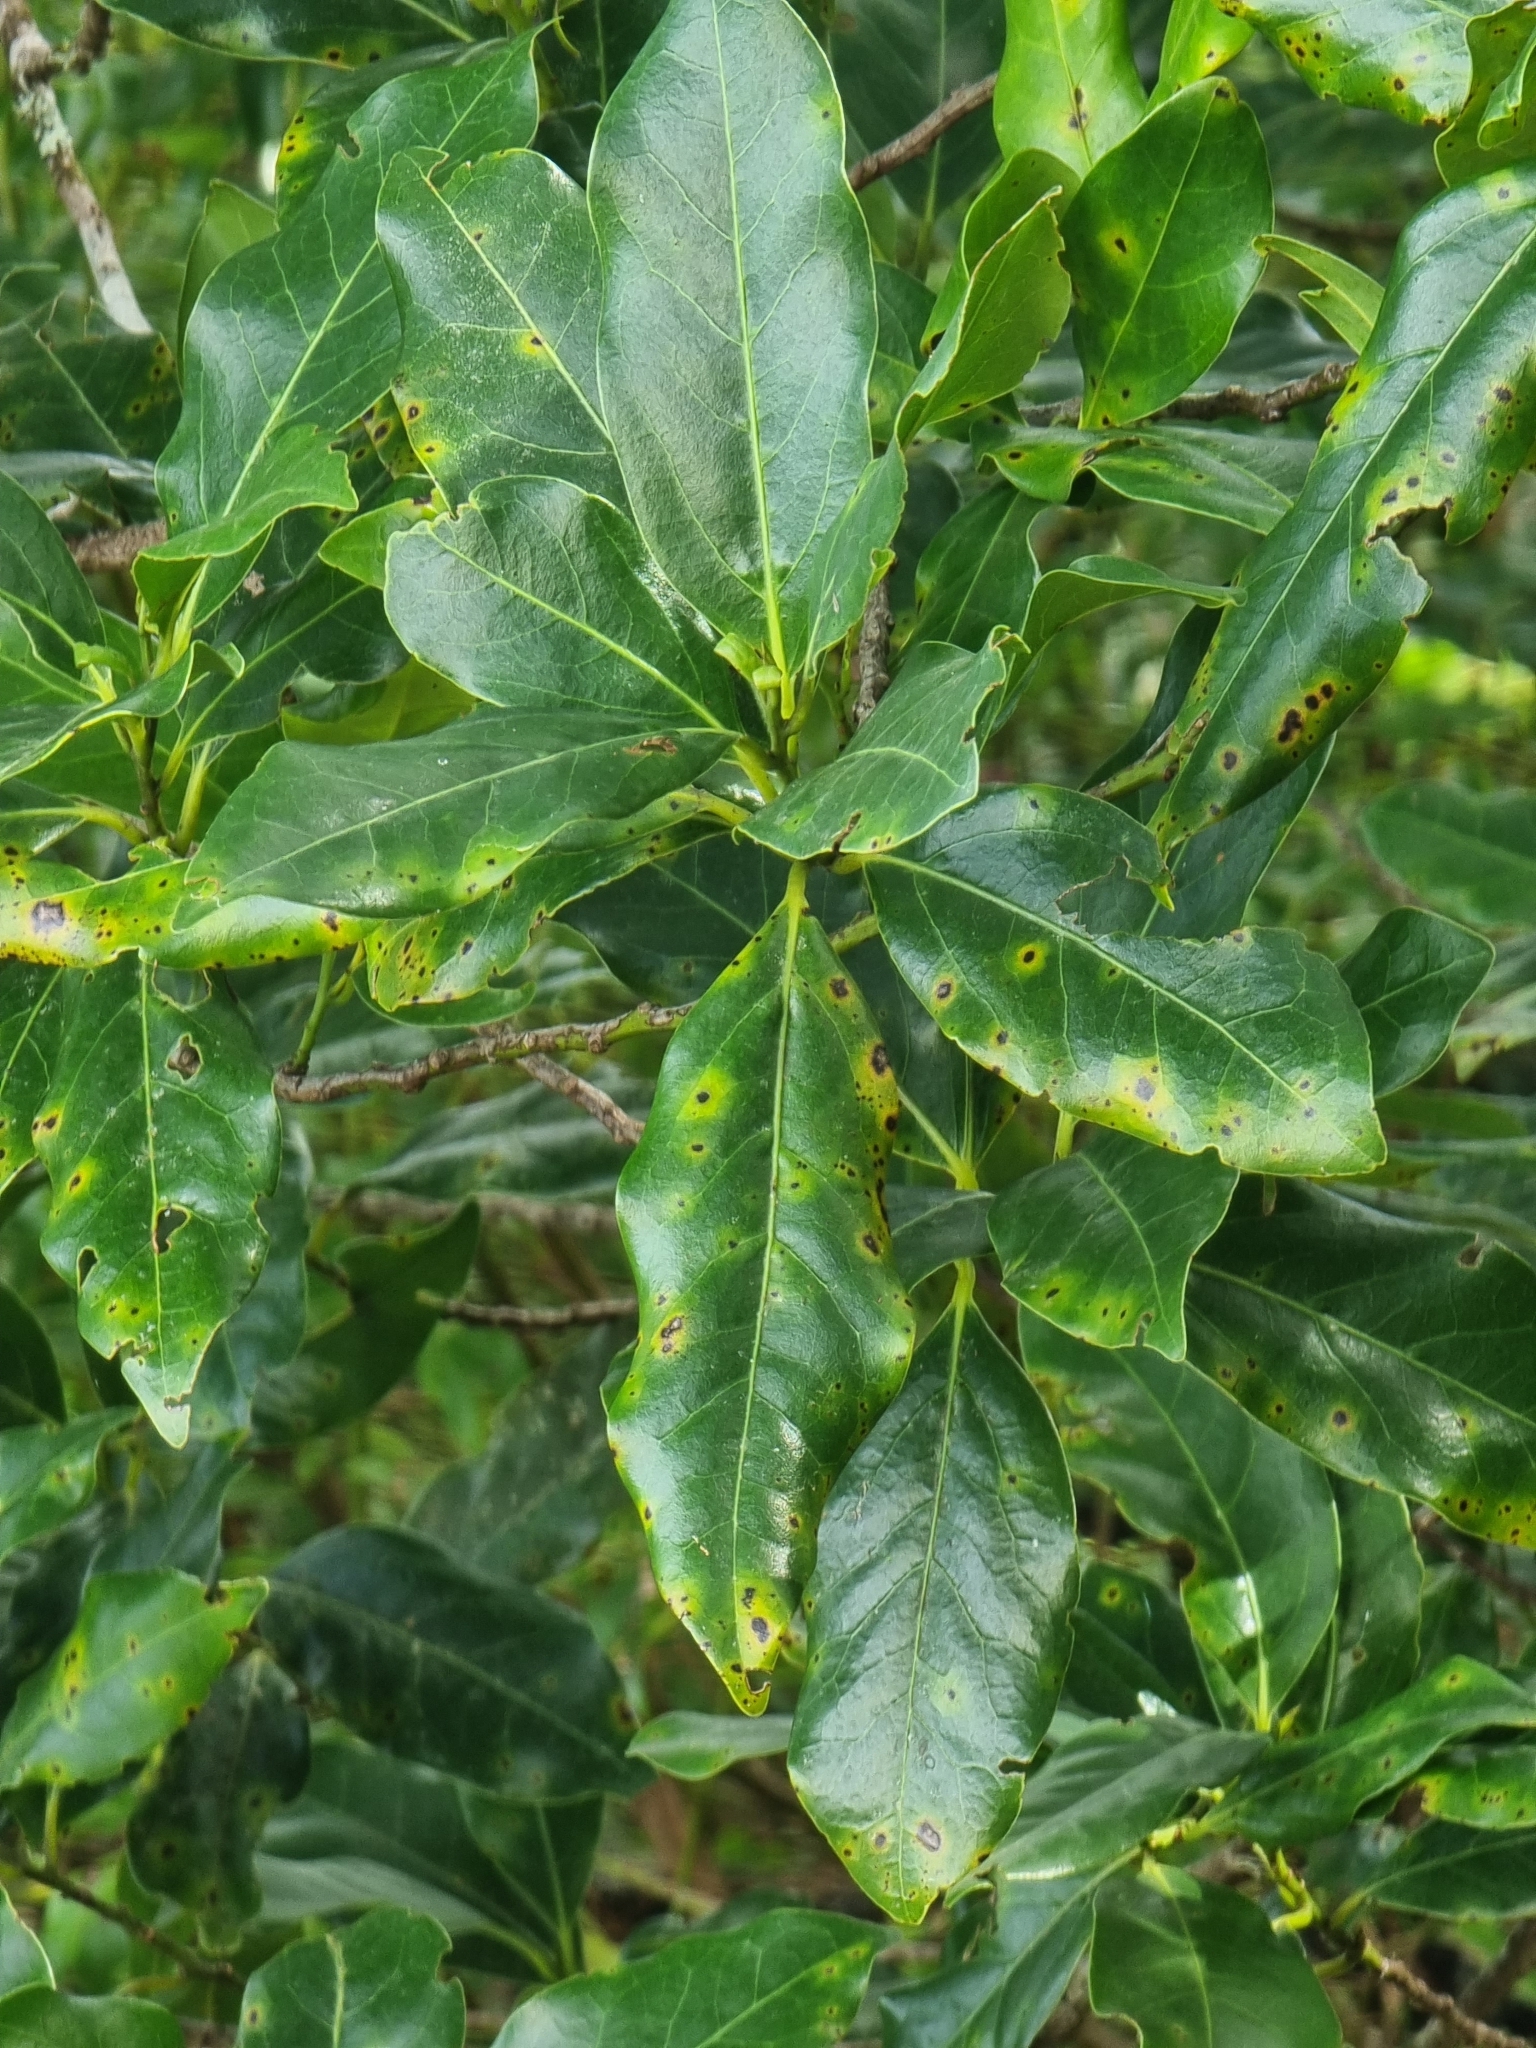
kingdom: Plantae
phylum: Tracheophyta
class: Magnoliopsida
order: Laurales
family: Lauraceae
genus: Mespilodaphne
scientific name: Mespilodaphne foetens
